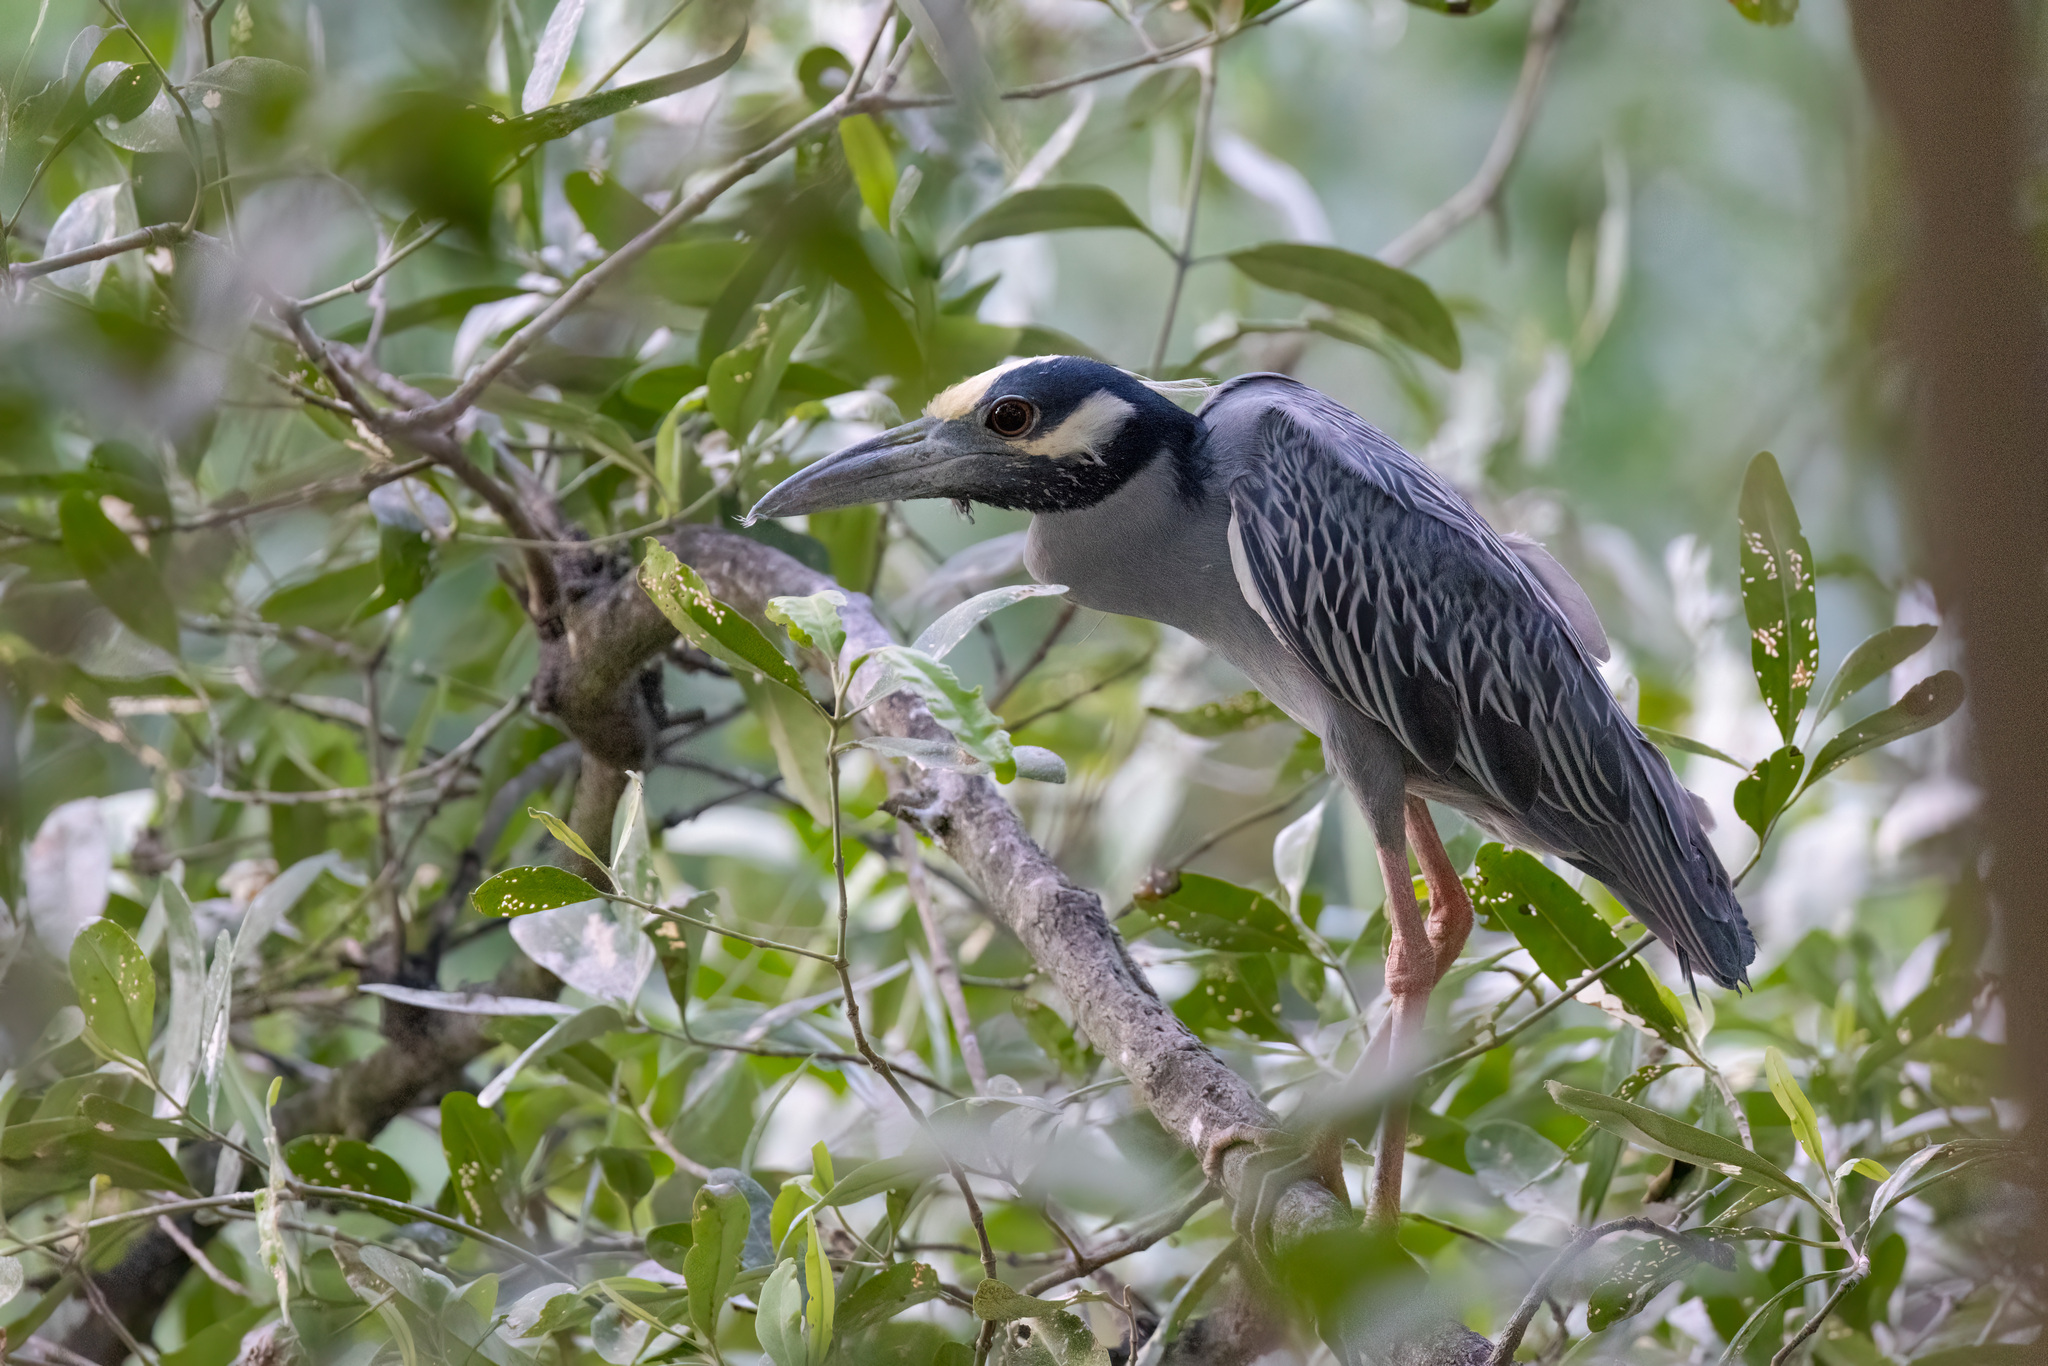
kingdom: Animalia
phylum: Chordata
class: Aves
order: Pelecaniformes
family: Ardeidae
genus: Nyctanassa
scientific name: Nyctanassa violacea
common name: Yellow-crowned night heron
